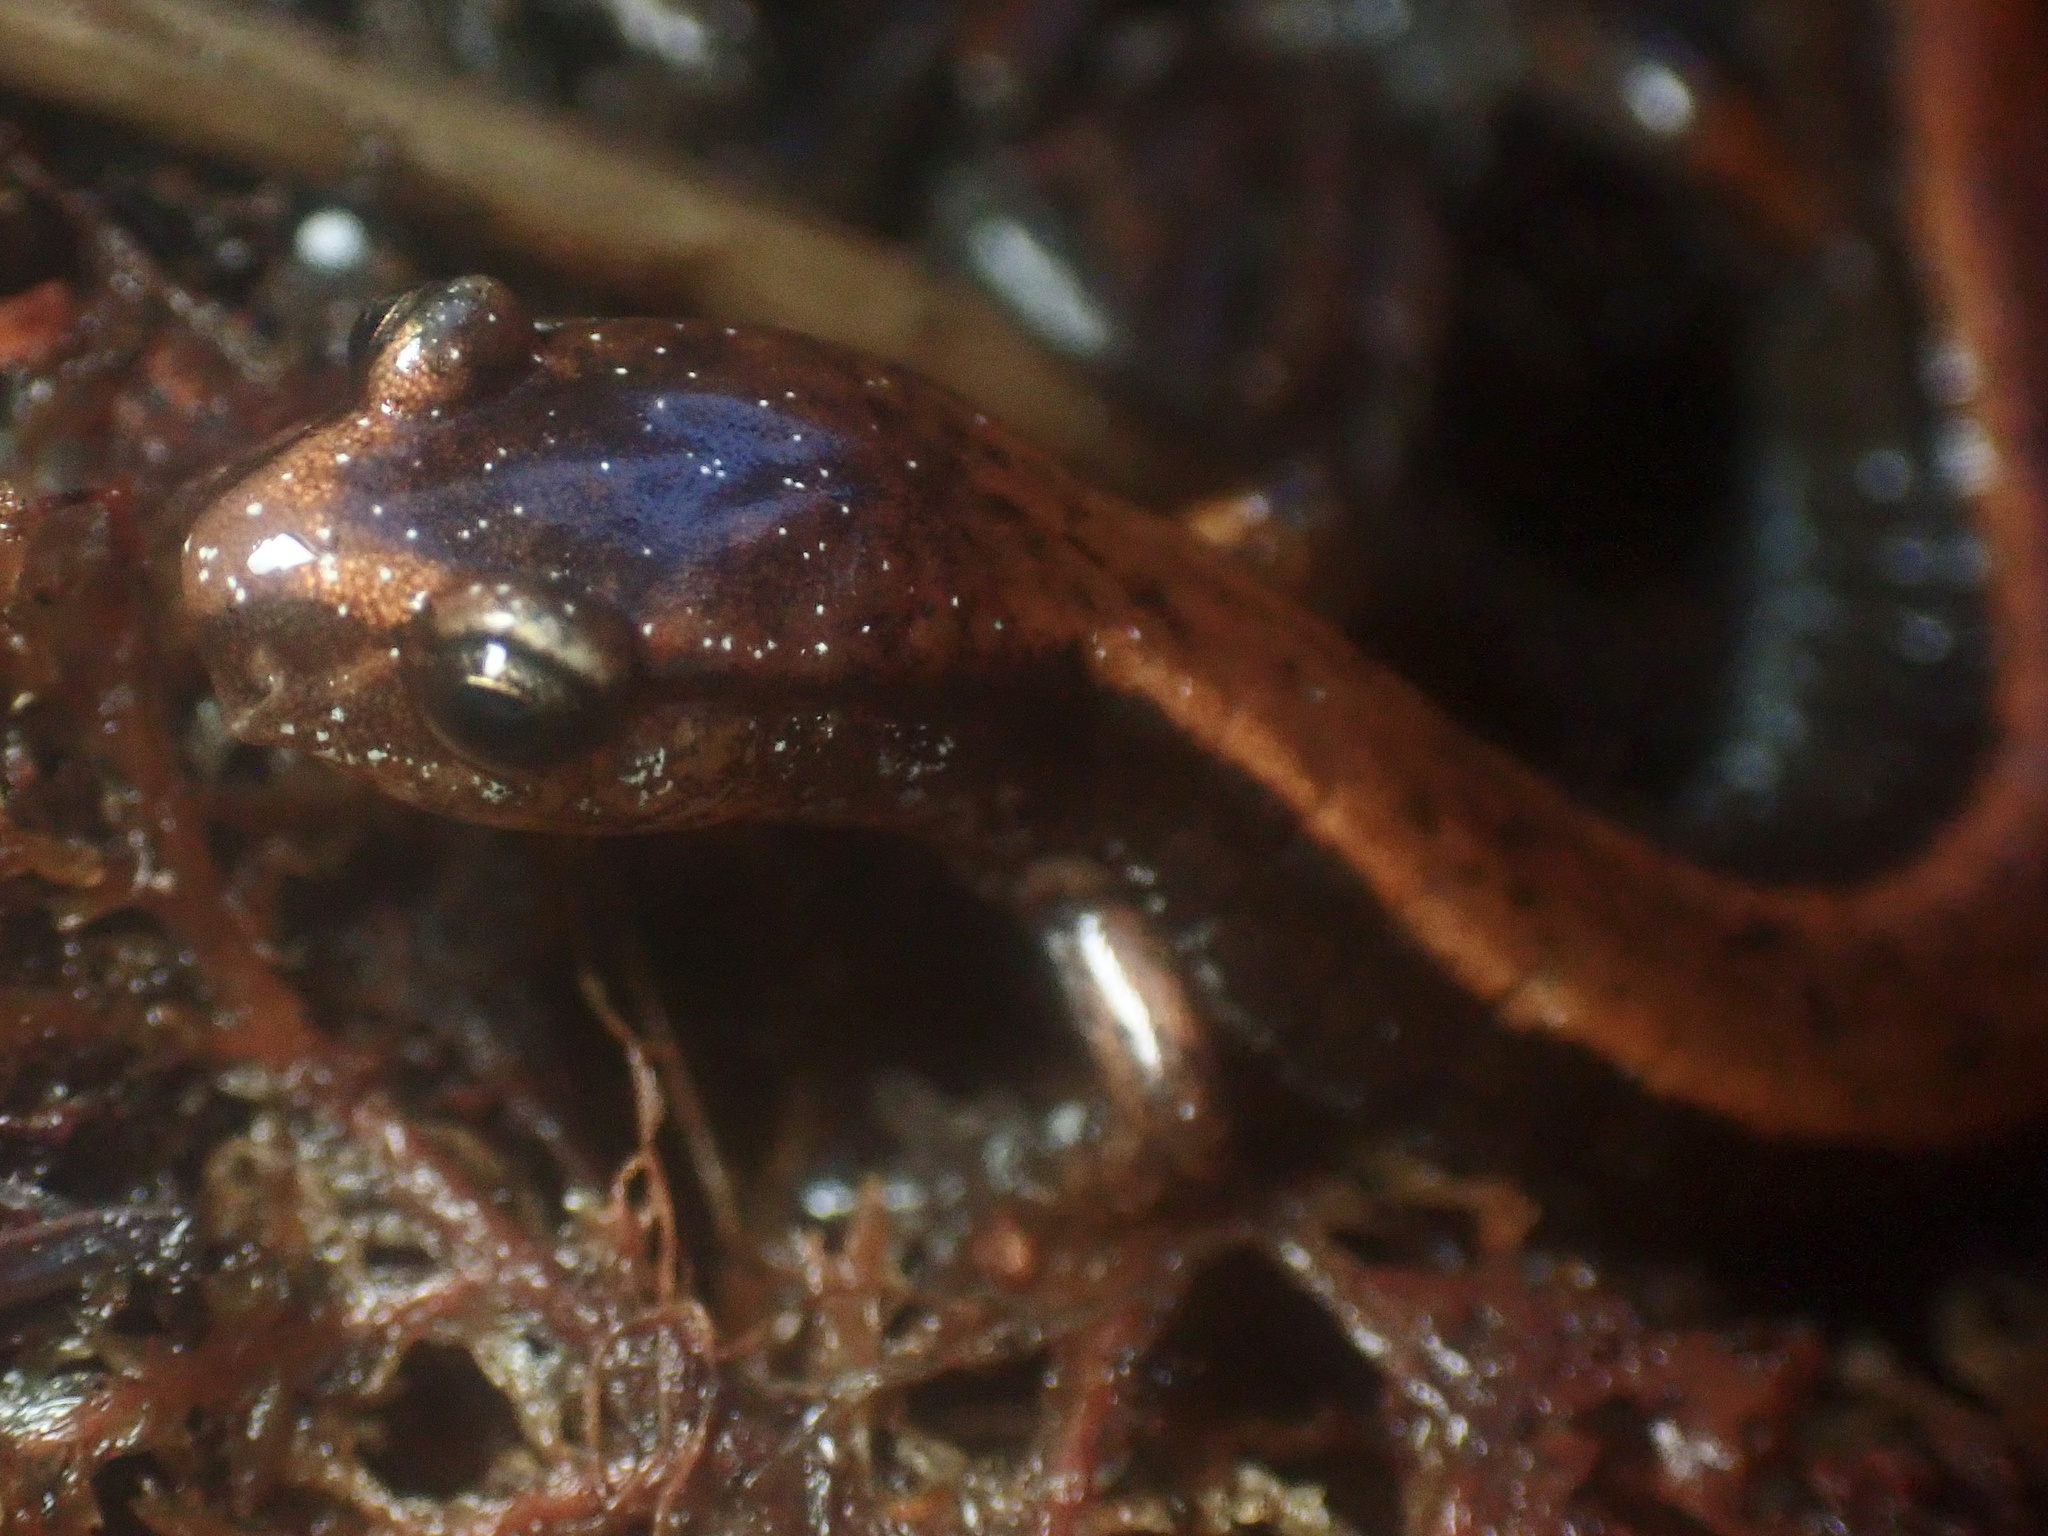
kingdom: Animalia
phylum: Chordata
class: Amphibia
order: Caudata
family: Plethodontidae
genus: Plethodon
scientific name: Plethodon vehiculum
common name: Western red-backed salamander
